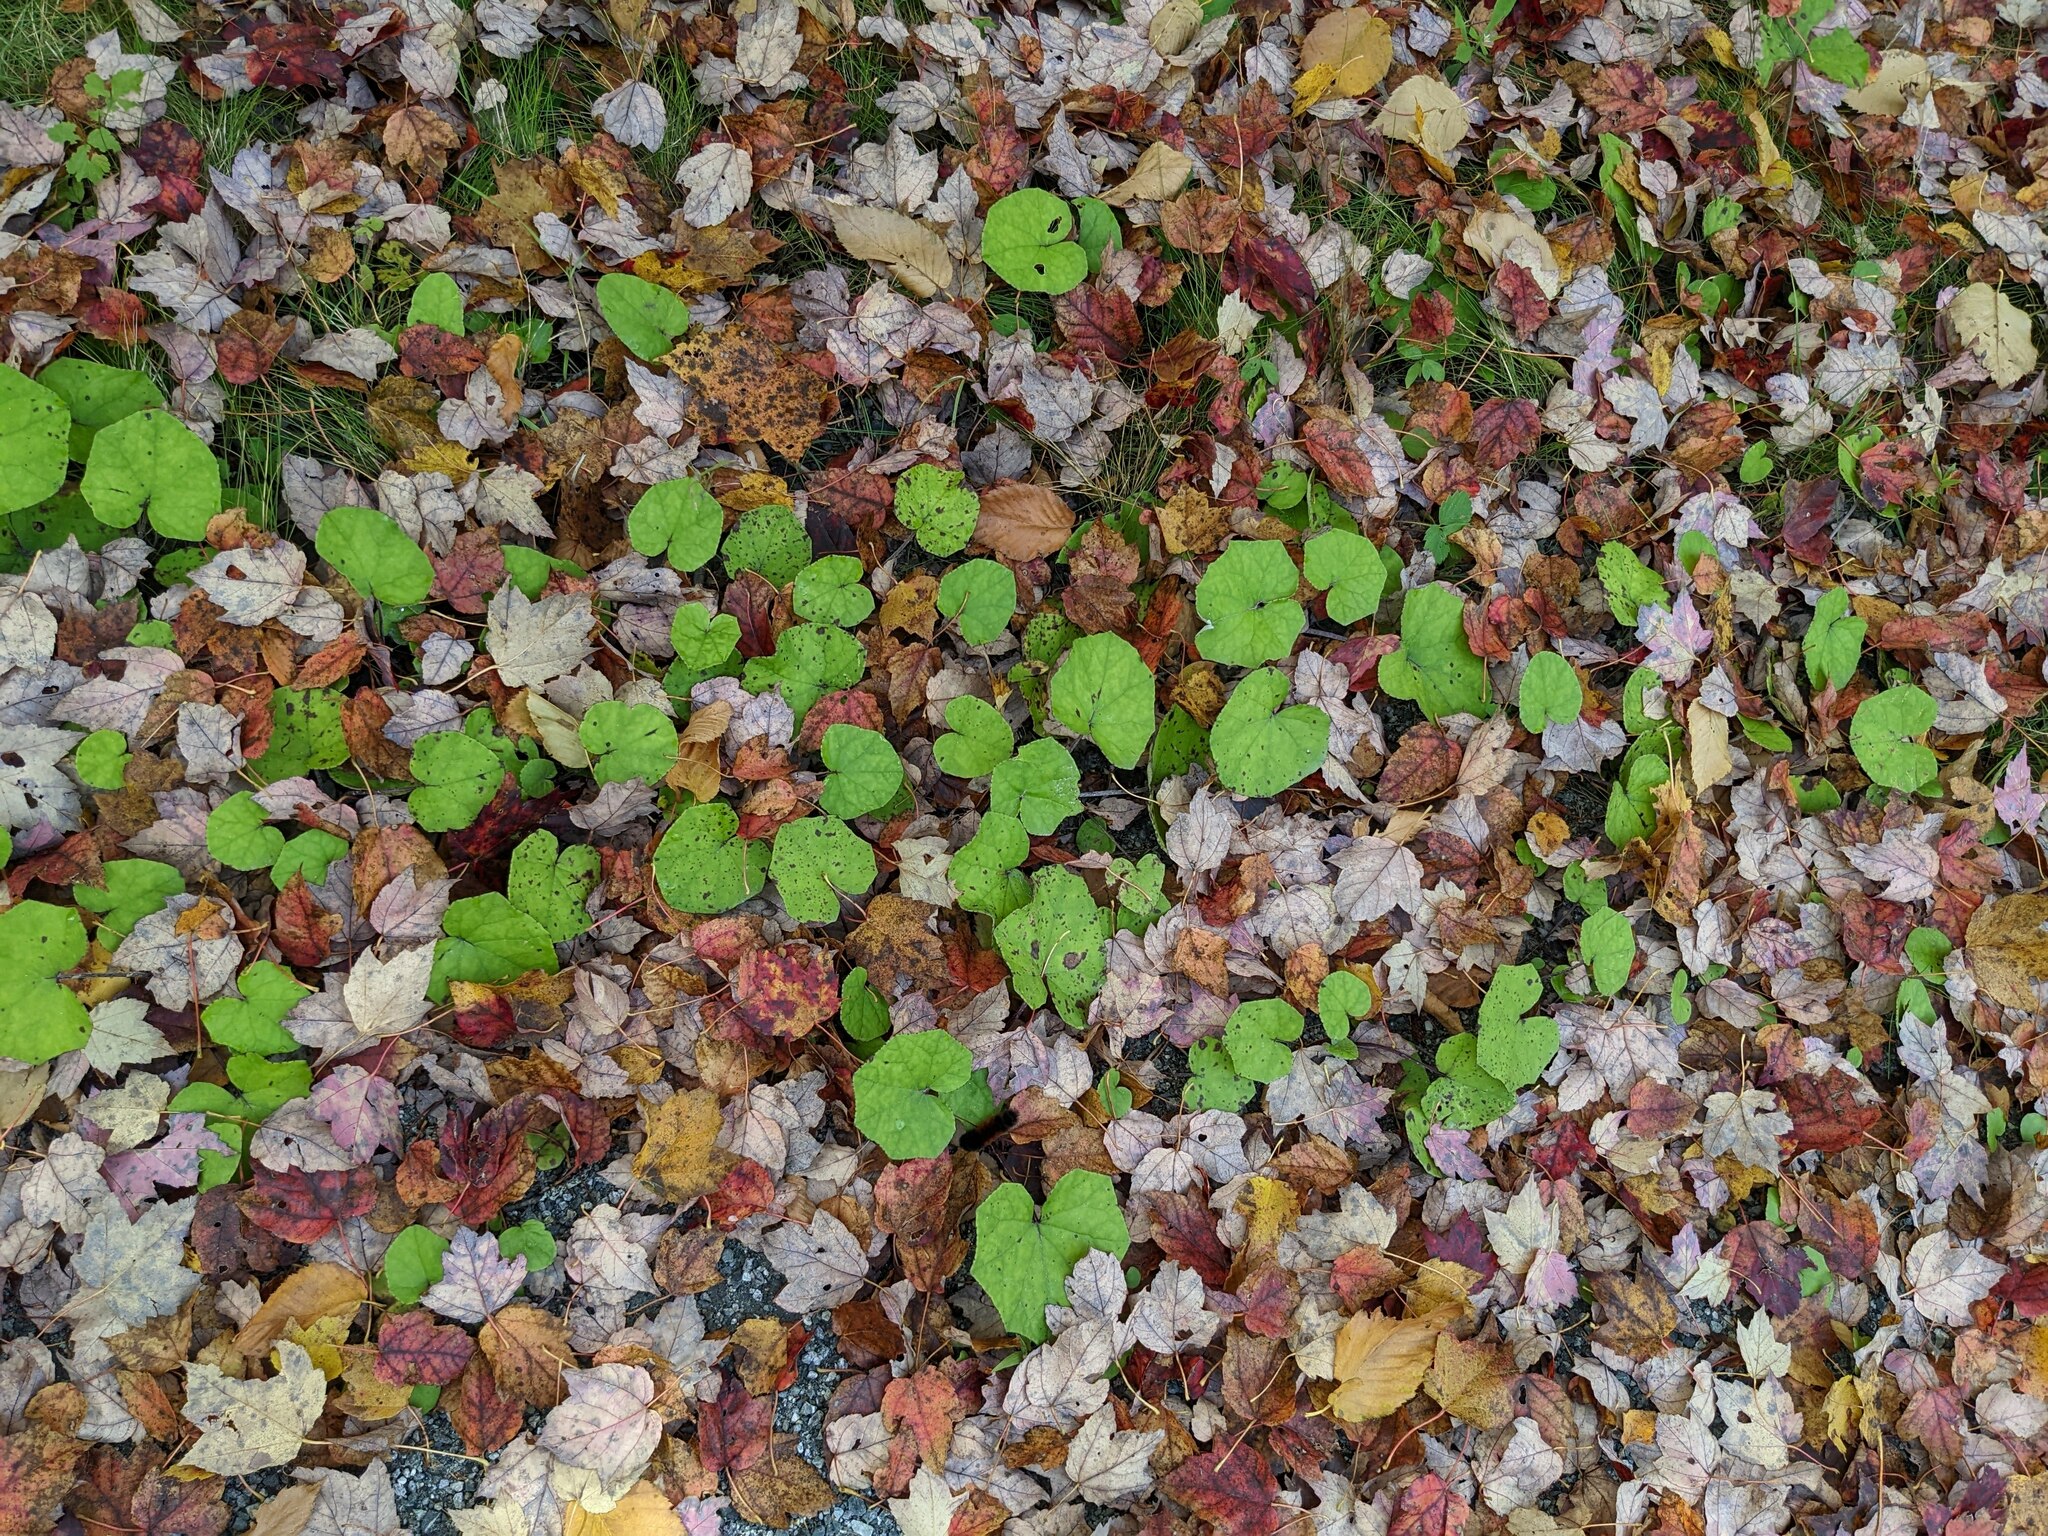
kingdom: Plantae
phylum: Tracheophyta
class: Magnoliopsida
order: Asterales
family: Asteraceae
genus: Tussilago
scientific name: Tussilago farfara
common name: Coltsfoot
